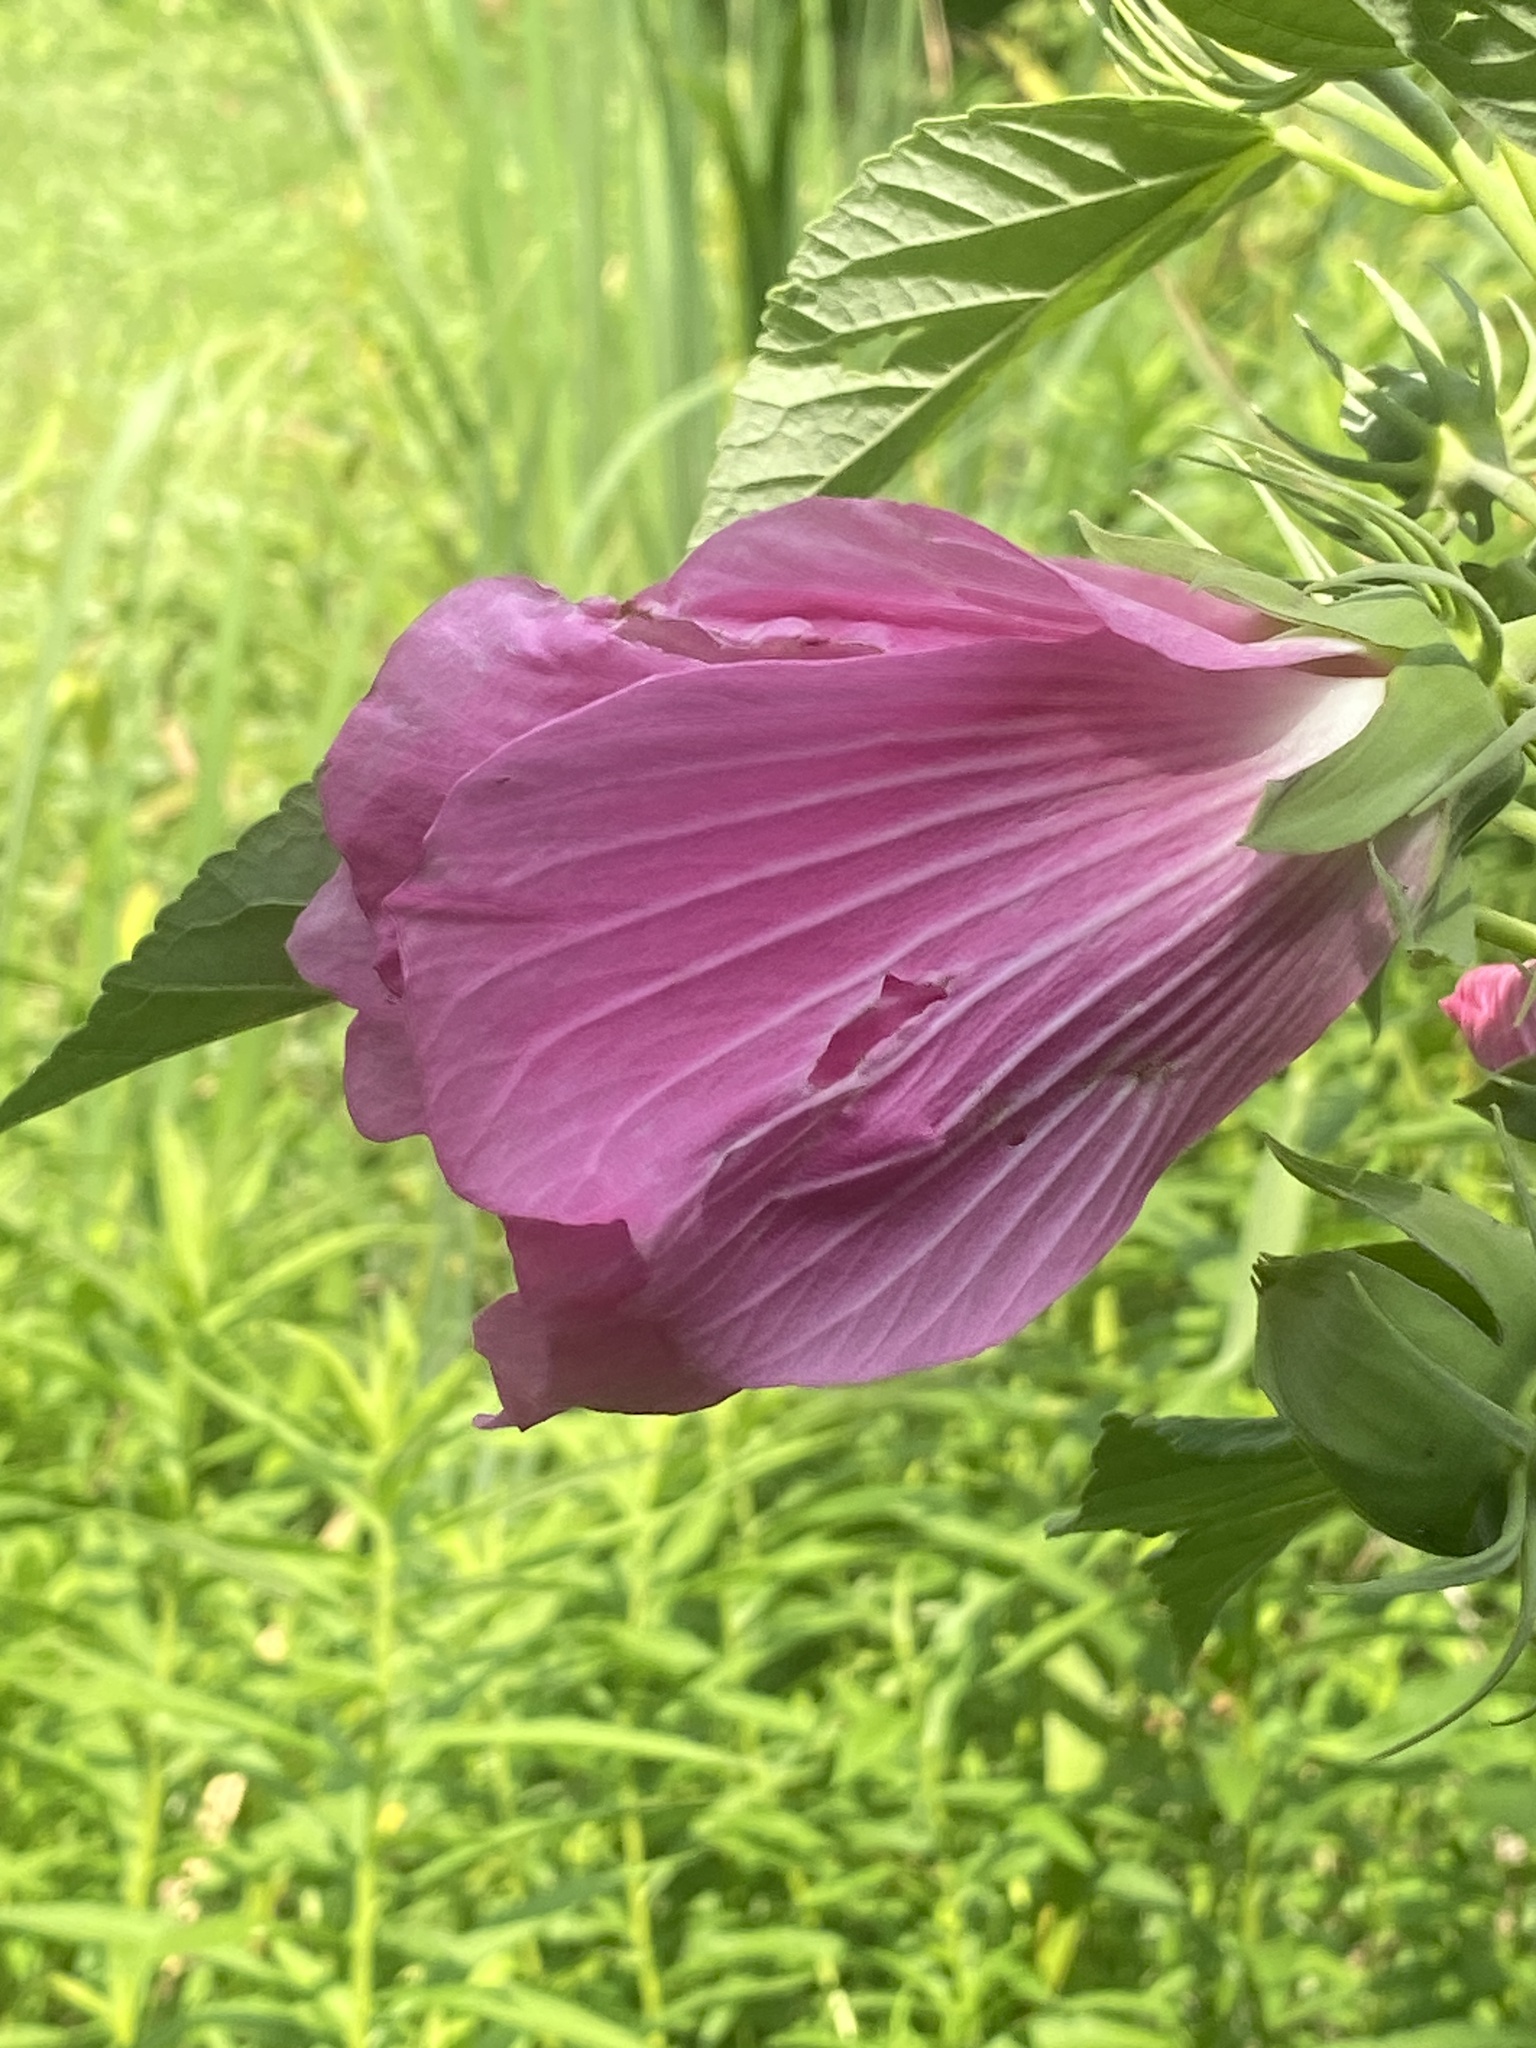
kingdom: Plantae
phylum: Tracheophyta
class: Magnoliopsida
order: Malvales
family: Malvaceae
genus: Hibiscus
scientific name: Hibiscus moscheutos
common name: Common rose-mallow
